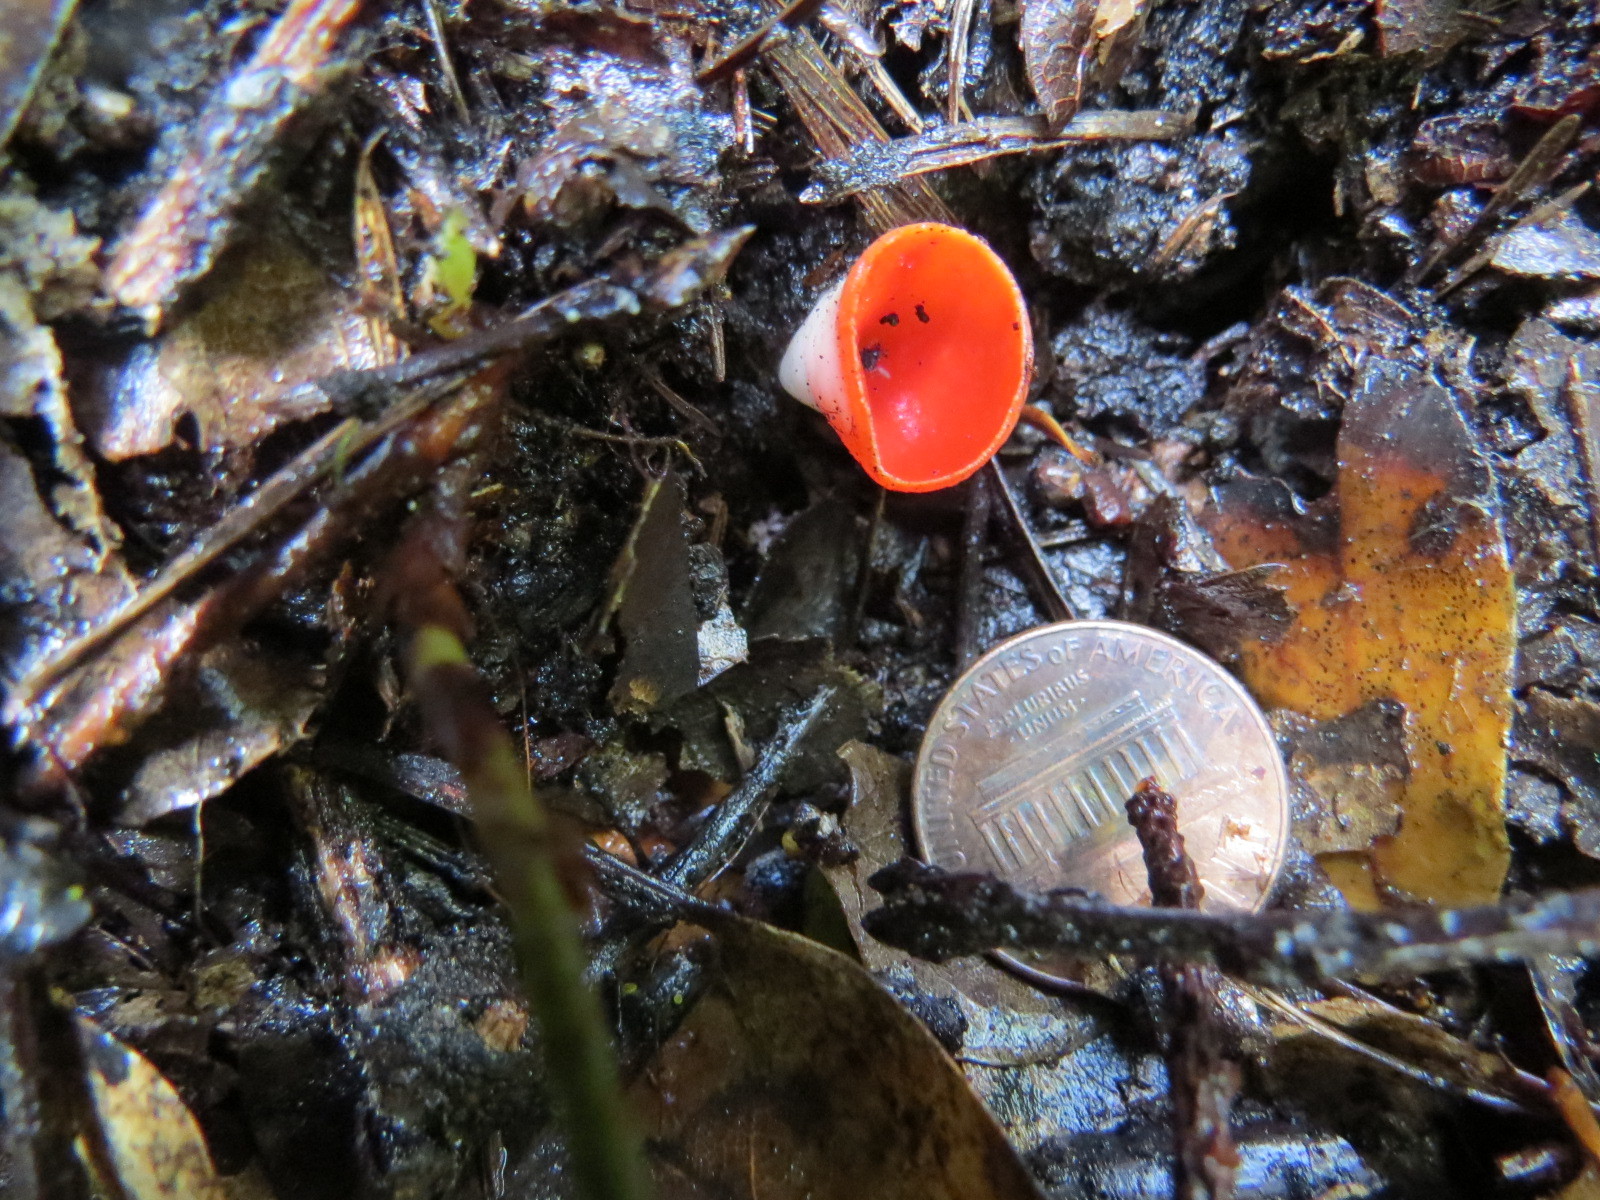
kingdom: Fungi
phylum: Ascomycota
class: Pezizomycetes
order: Pezizales
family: Sarcoscyphaceae
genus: Sarcoscypha
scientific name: Sarcoscypha coccinea
